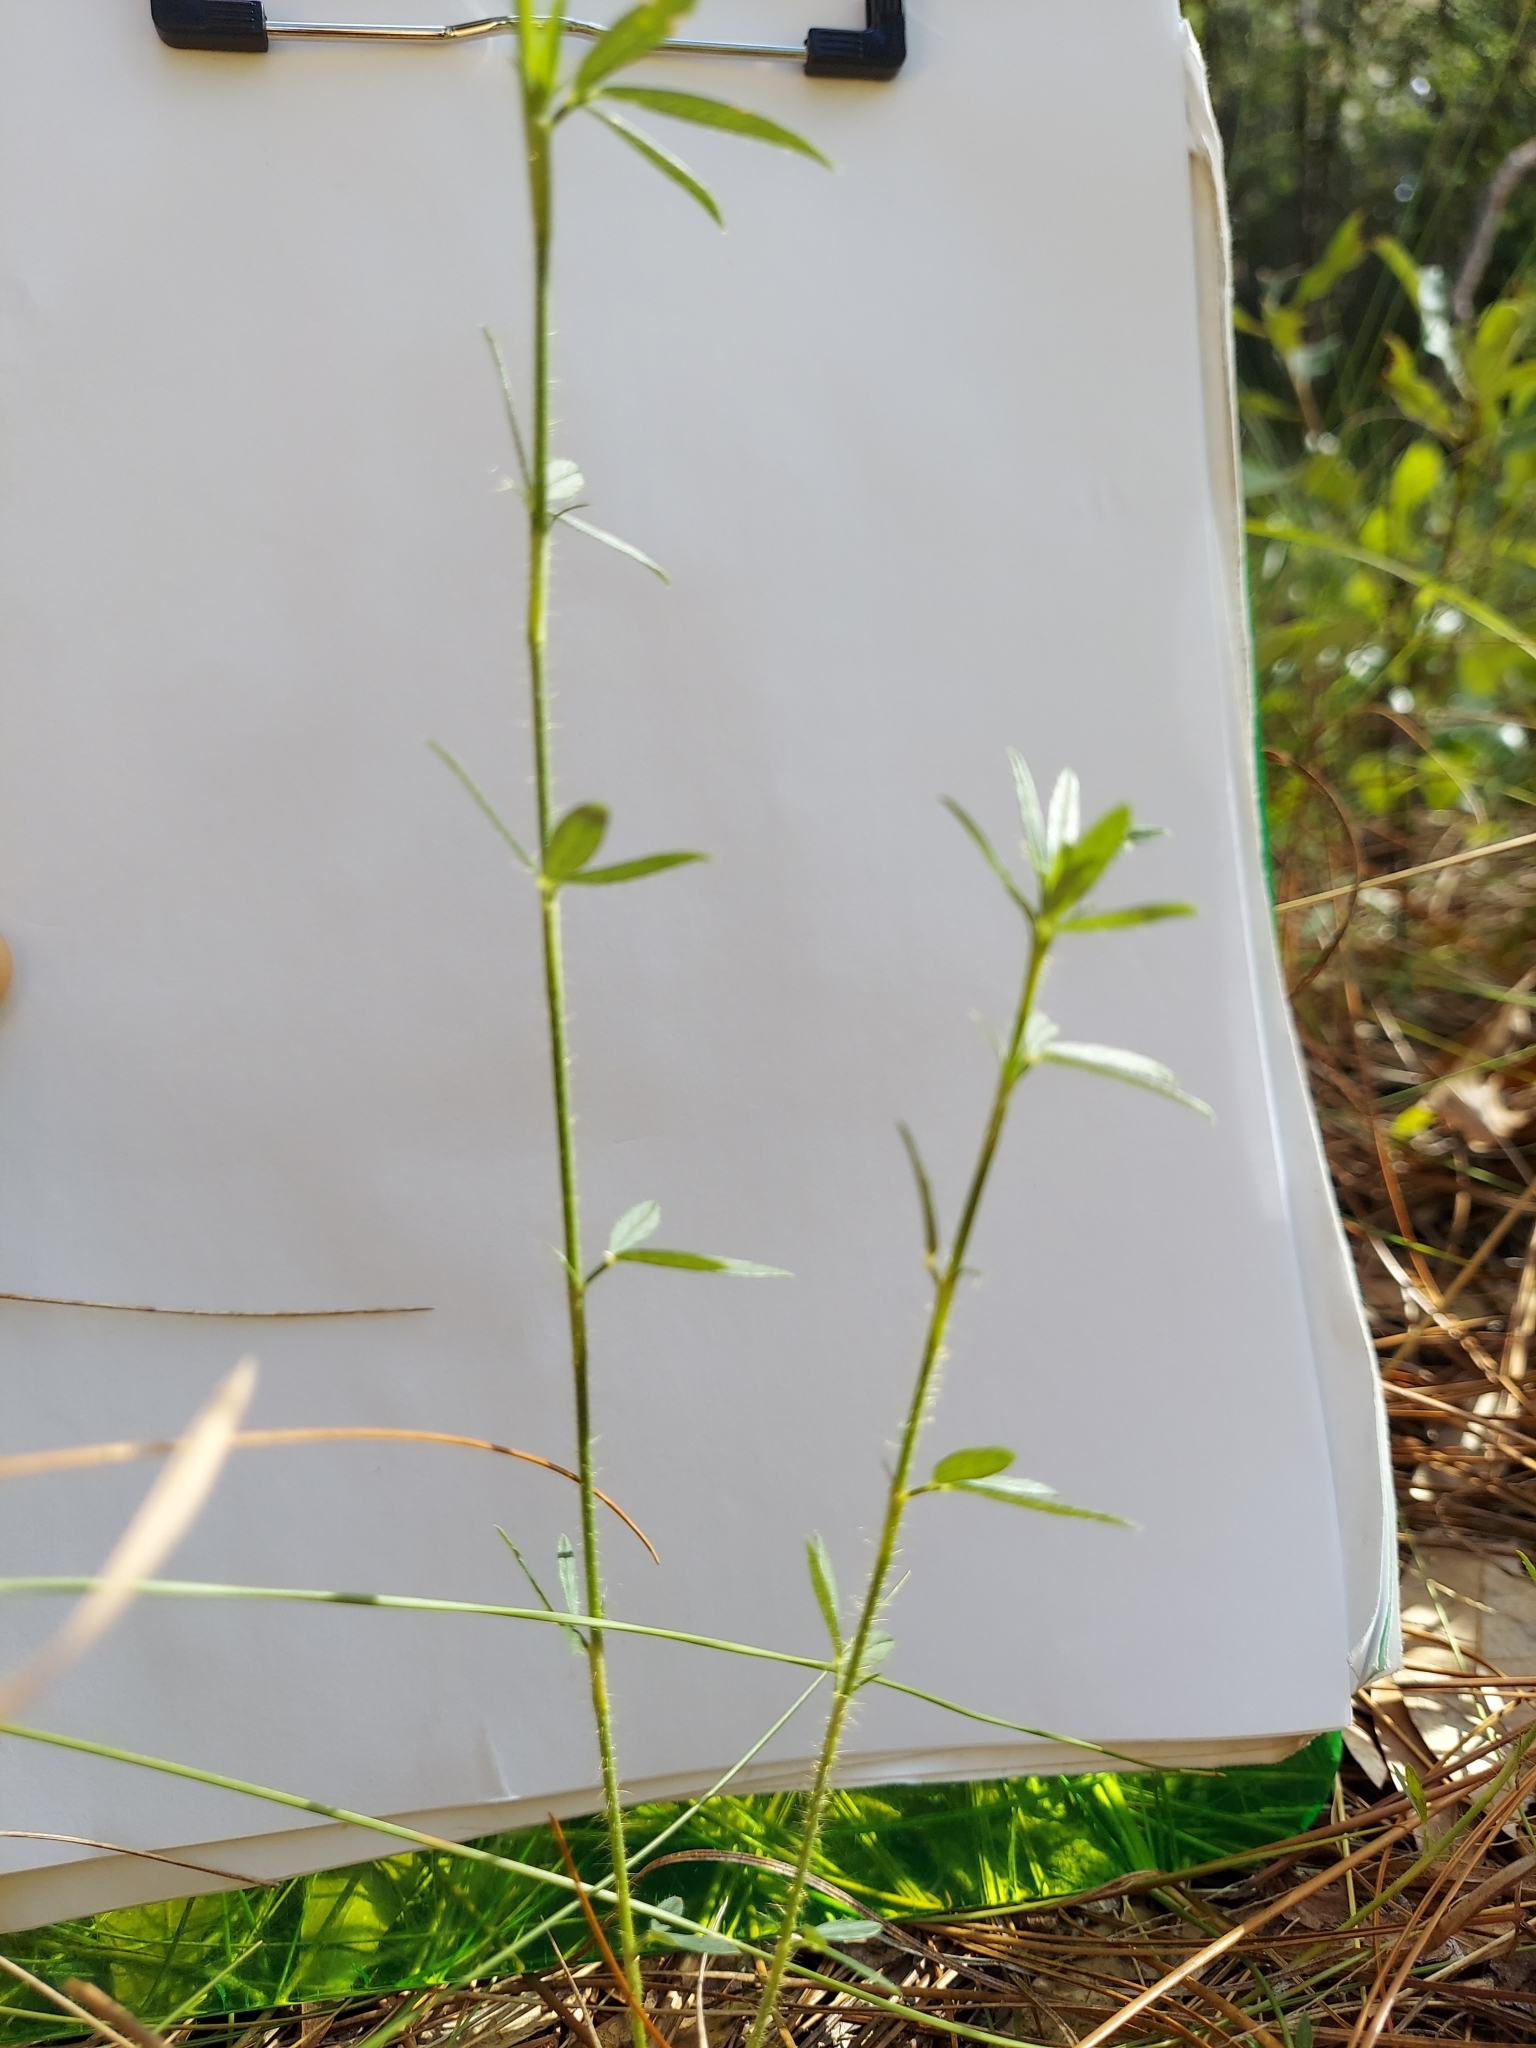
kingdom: Plantae
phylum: Tracheophyta
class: Magnoliopsida
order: Fabales
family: Fabaceae
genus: Stylosanthes
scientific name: Stylosanthes biflora
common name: Two-flower pencil-flower
